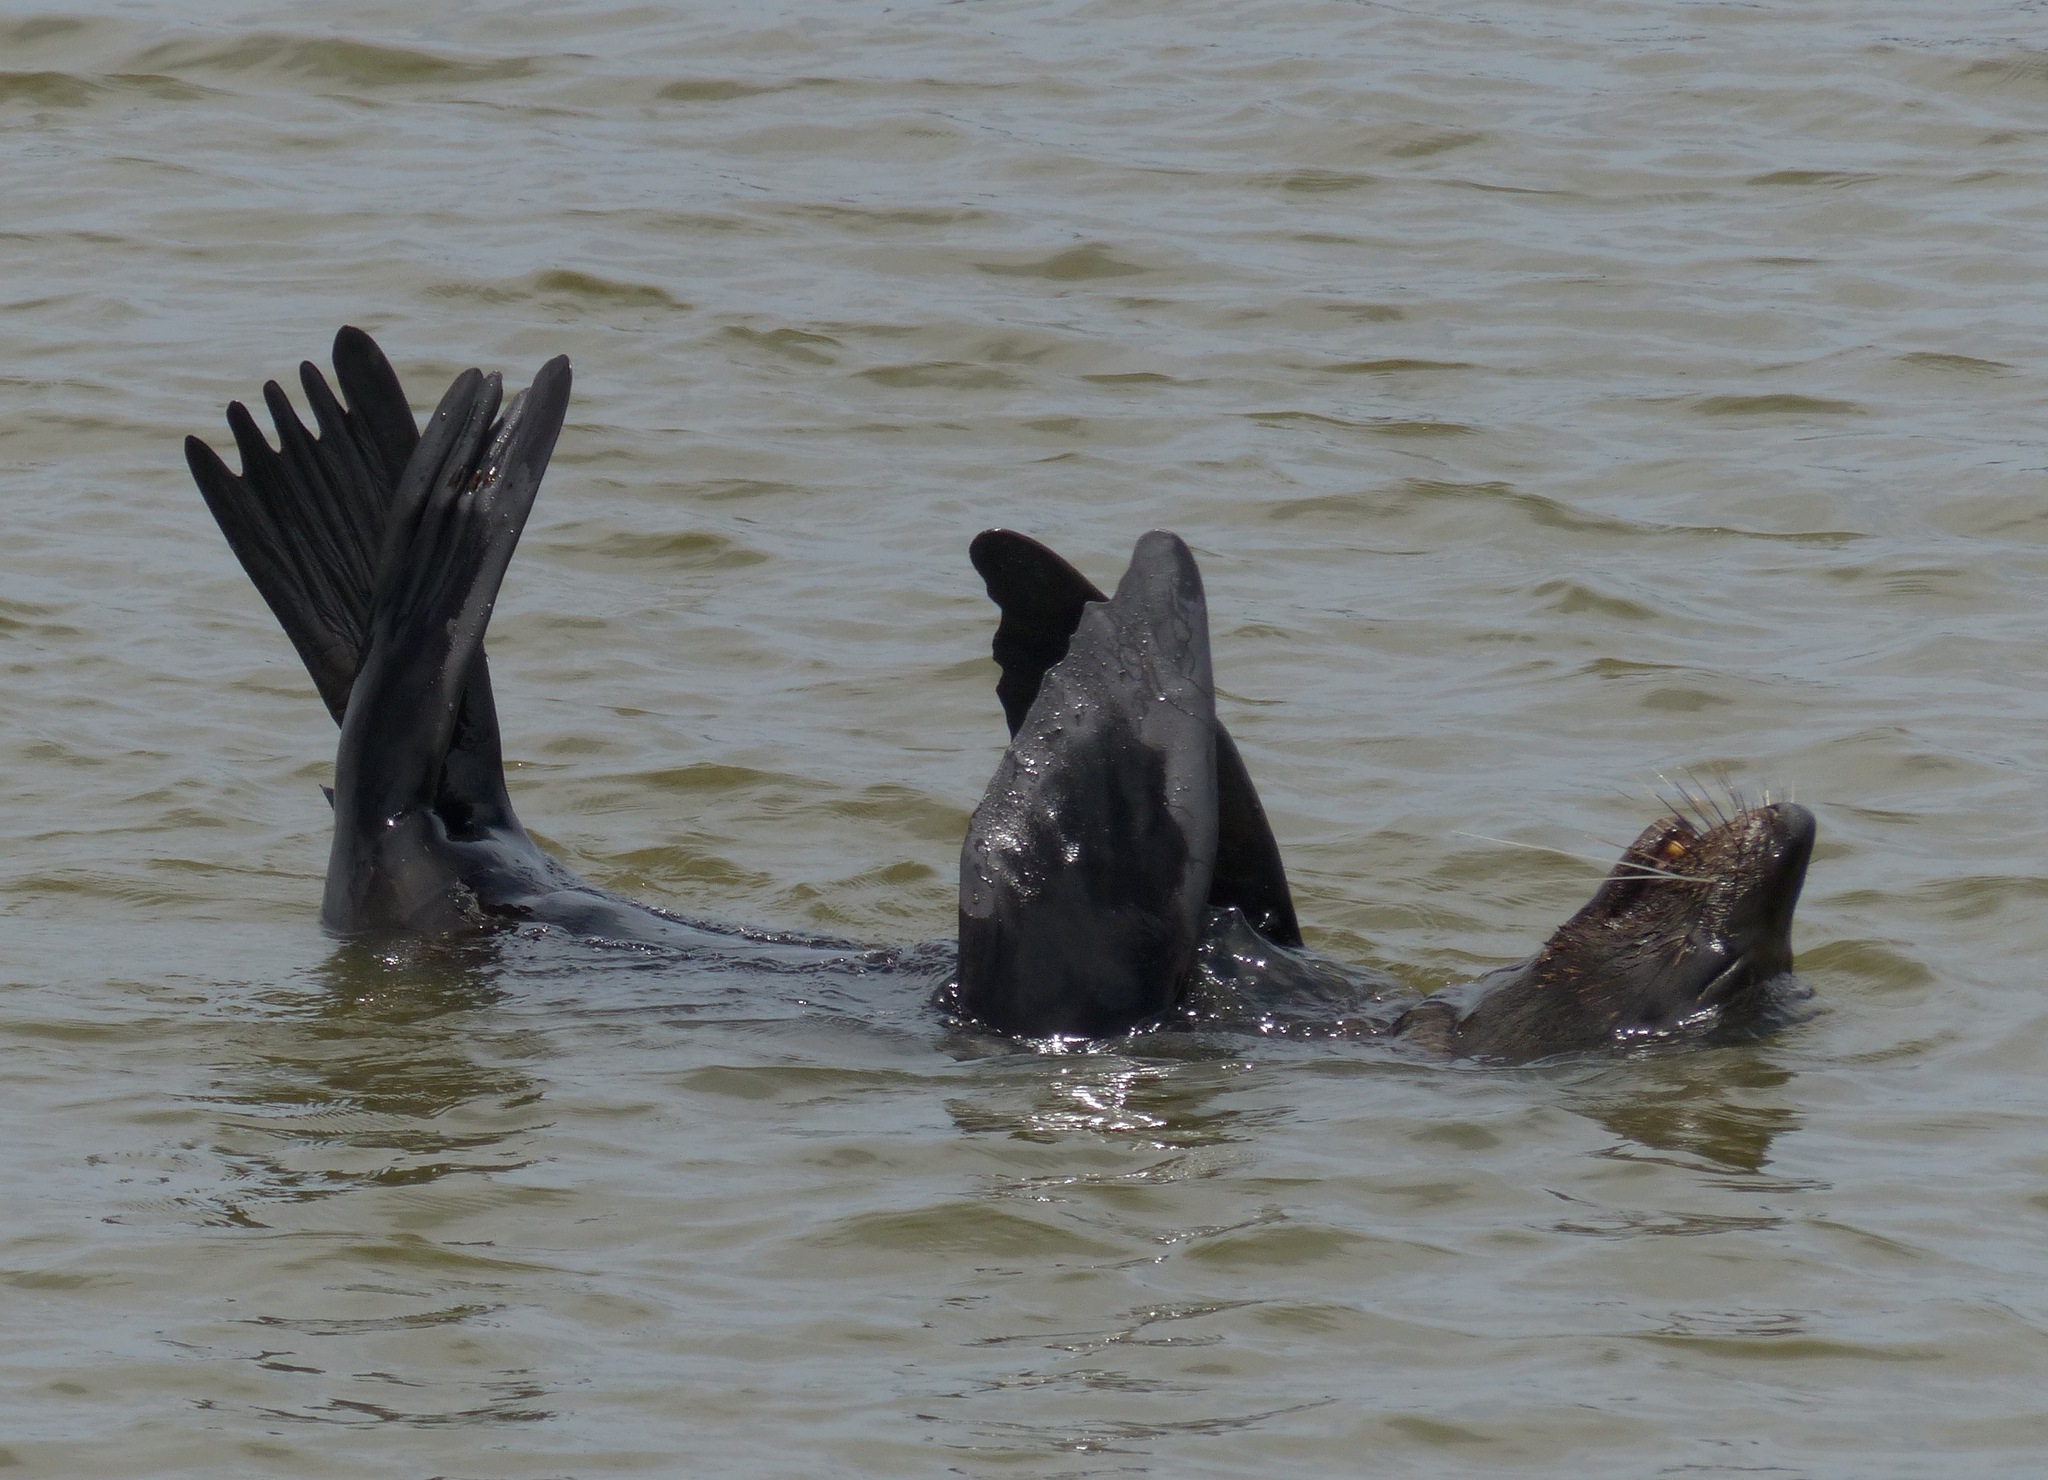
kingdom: Animalia
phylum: Chordata
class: Mammalia
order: Carnivora
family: Otariidae
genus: Arctocephalus
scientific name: Arctocephalus forsteri
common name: New zealand fur seal
